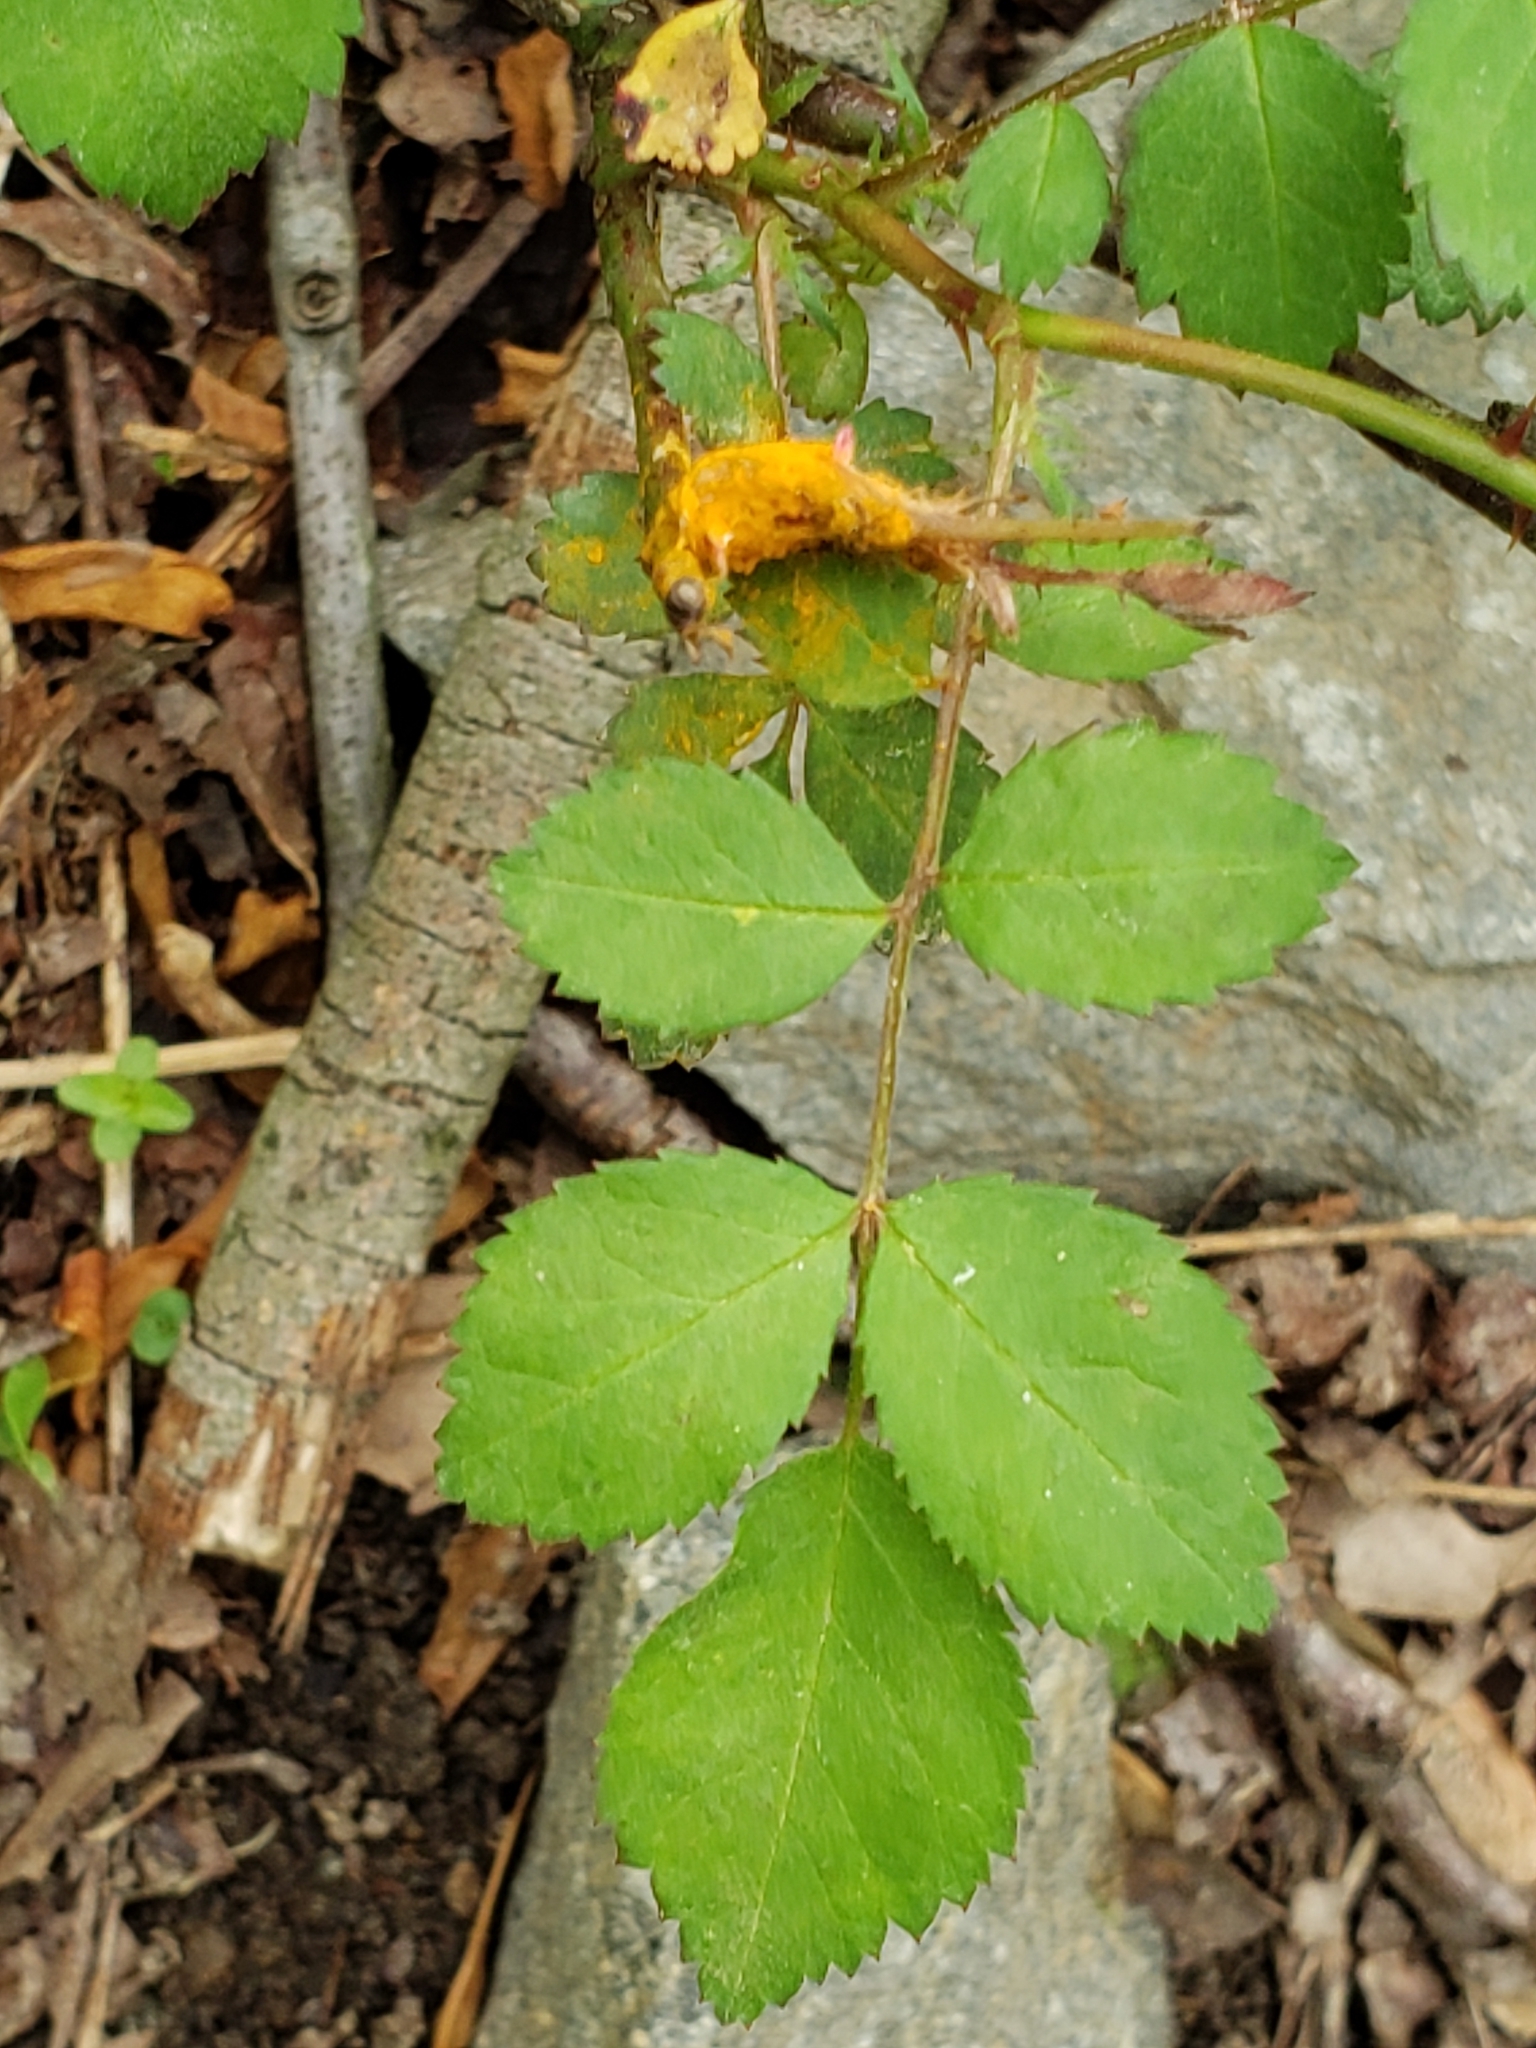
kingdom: Fungi
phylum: Basidiomycota
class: Pucciniomycetes
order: Pucciniales
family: Phragmidiaceae
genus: Phragmidium
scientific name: Phragmidium rosae-multiflorae
